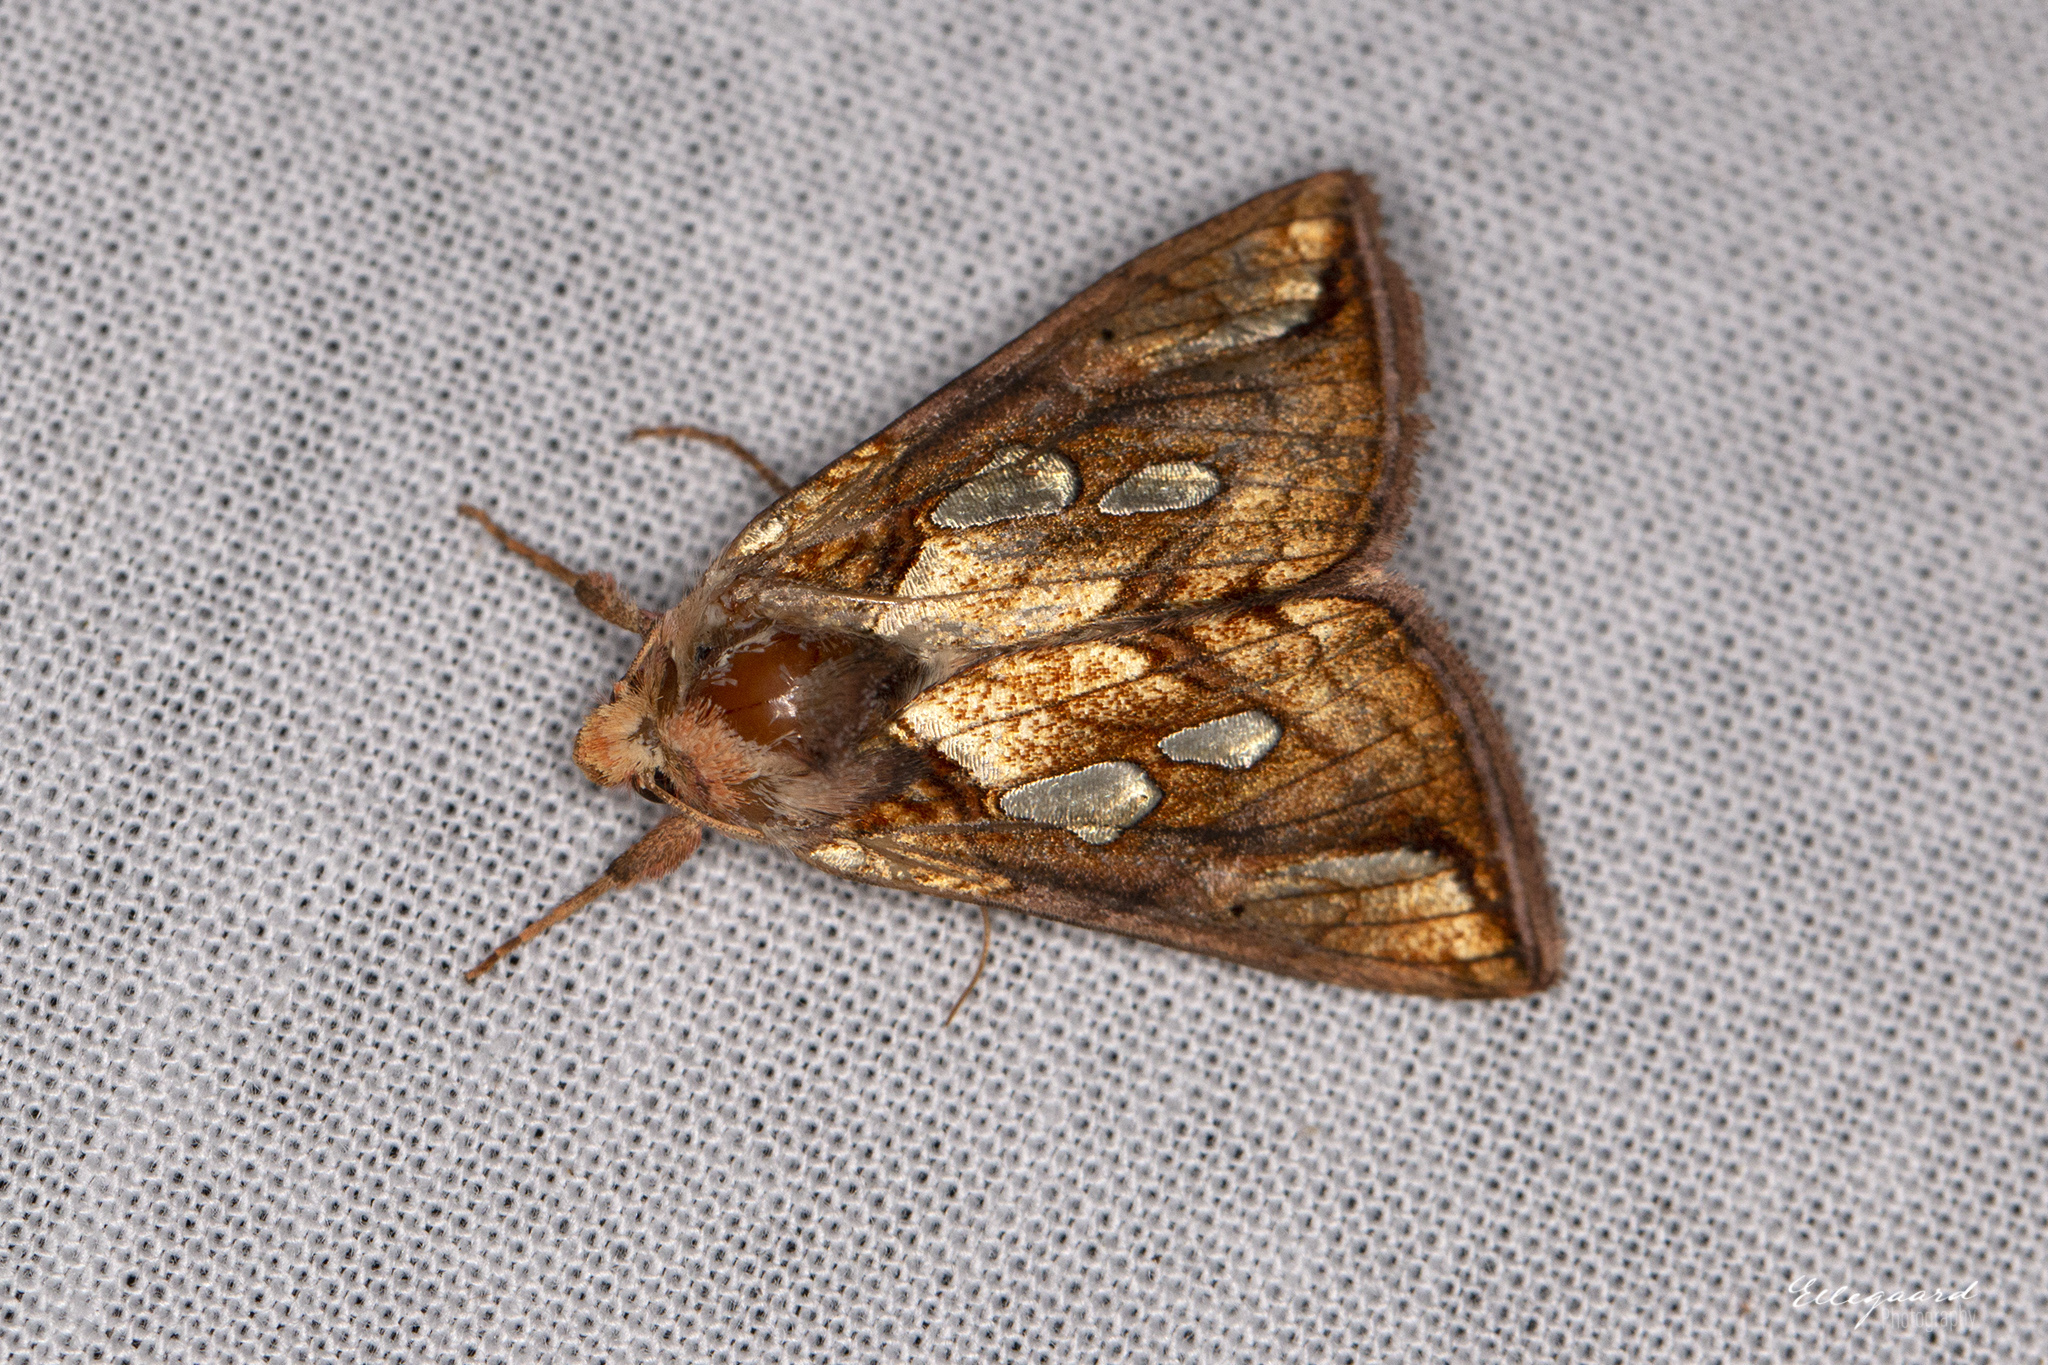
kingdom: Animalia
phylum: Arthropoda
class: Insecta
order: Lepidoptera
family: Noctuidae
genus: Plusia
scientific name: Plusia festucae
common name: Gold spot
